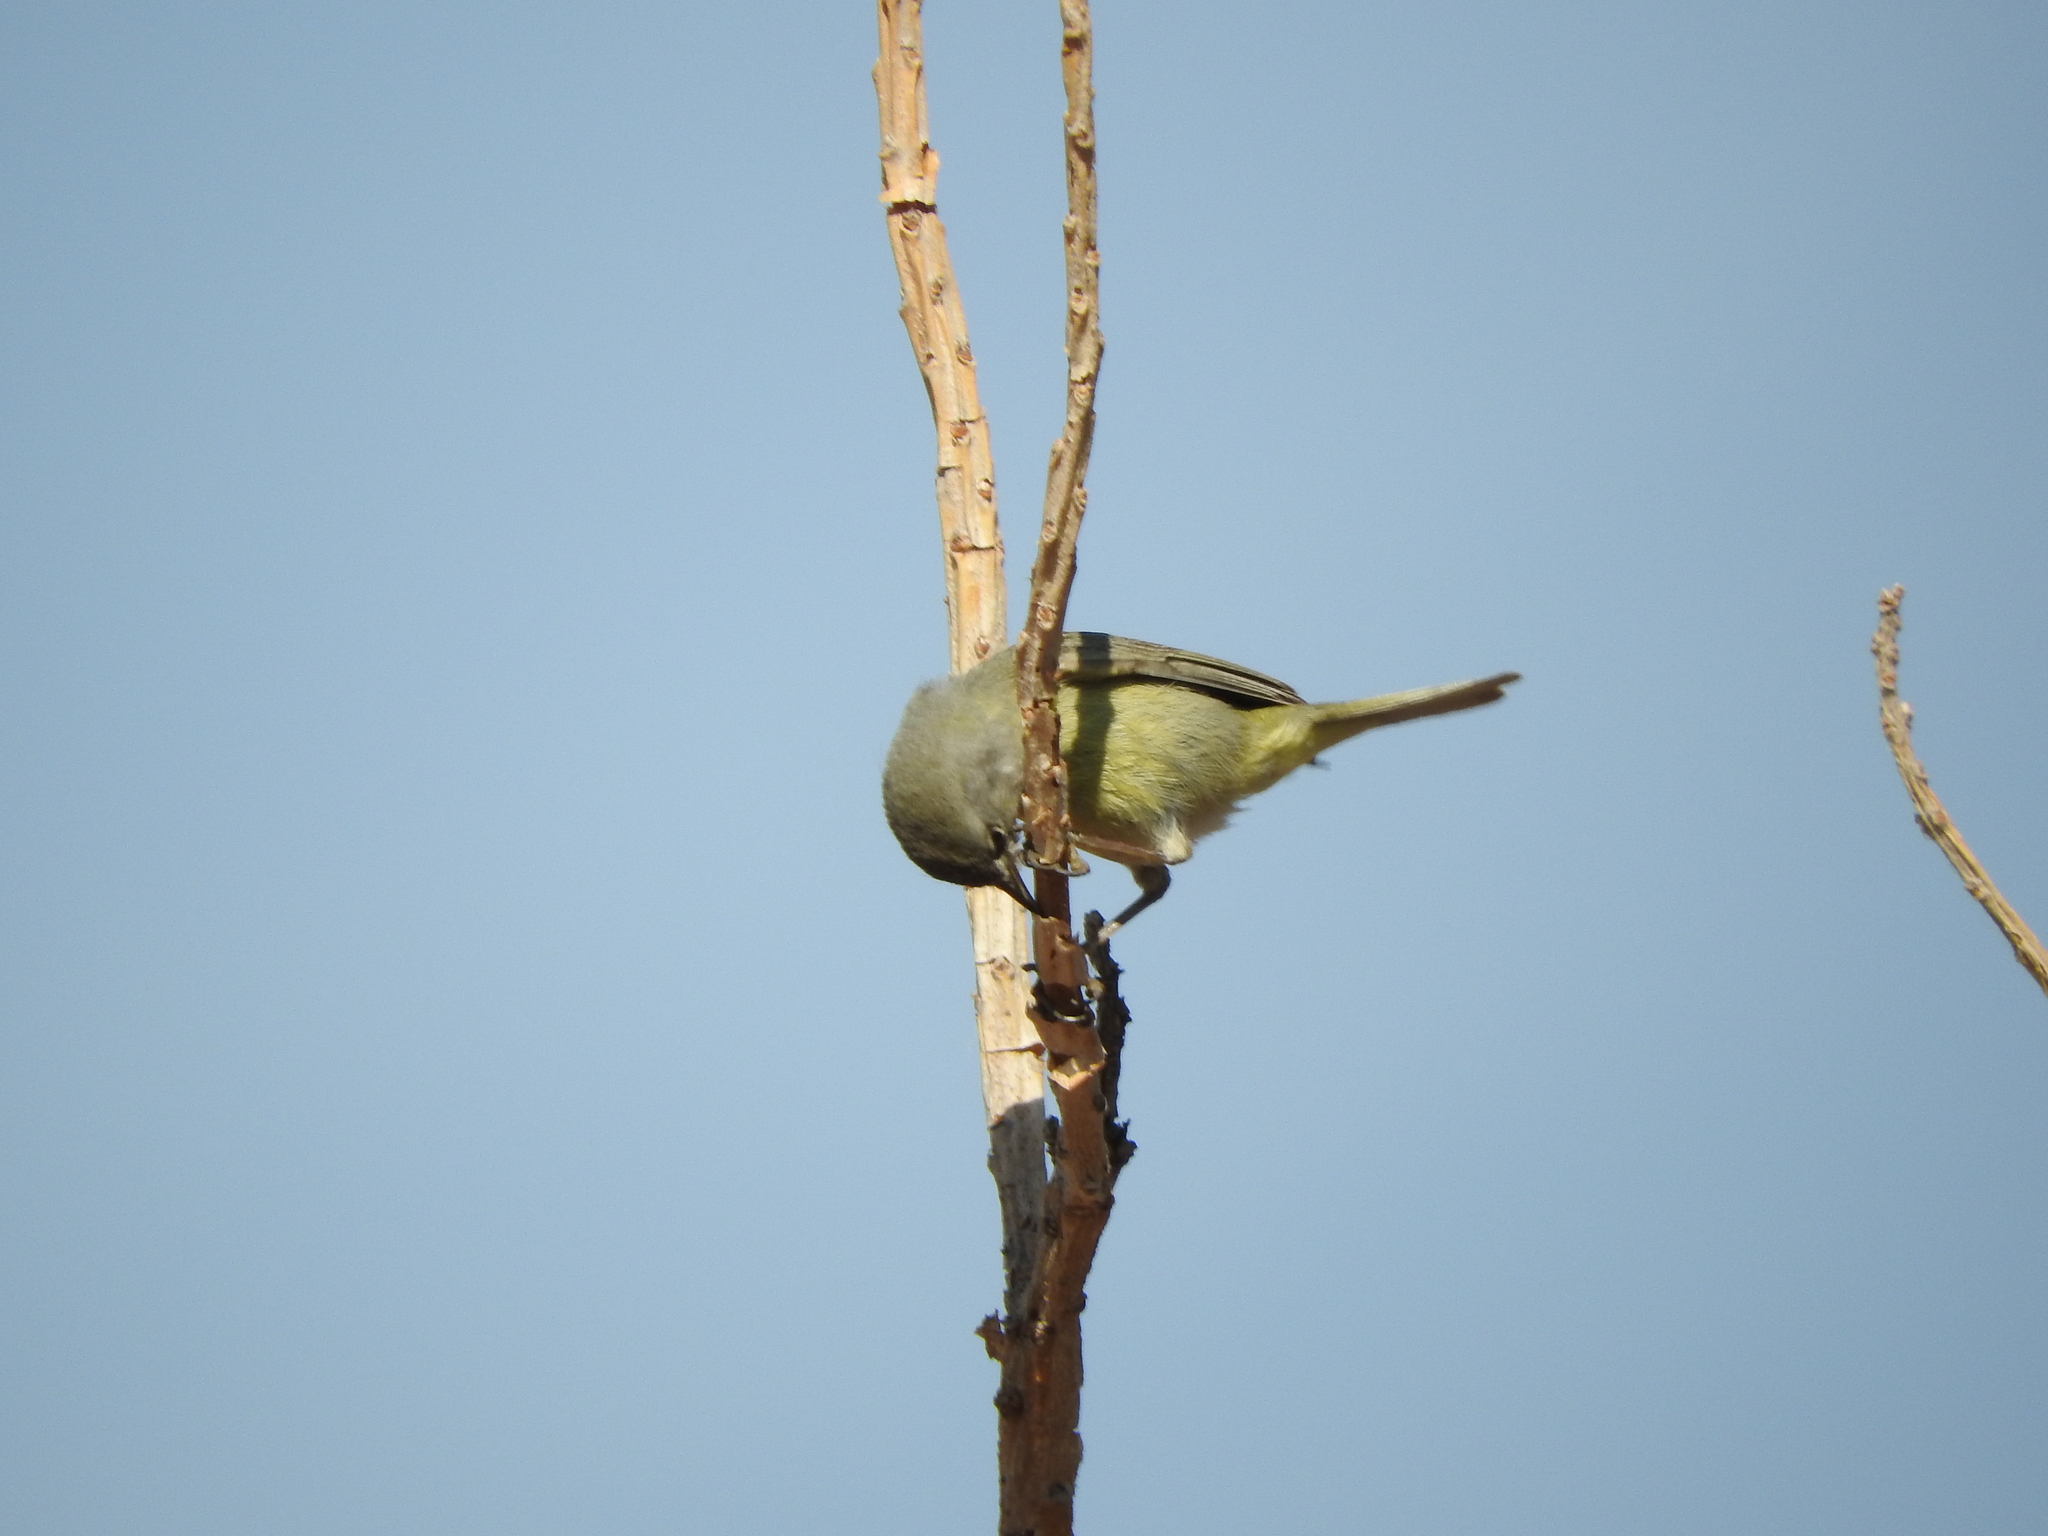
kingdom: Animalia
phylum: Chordata
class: Aves
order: Passeriformes
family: Parulidae
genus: Leiothlypis
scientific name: Leiothlypis celata
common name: Orange-crowned warbler
